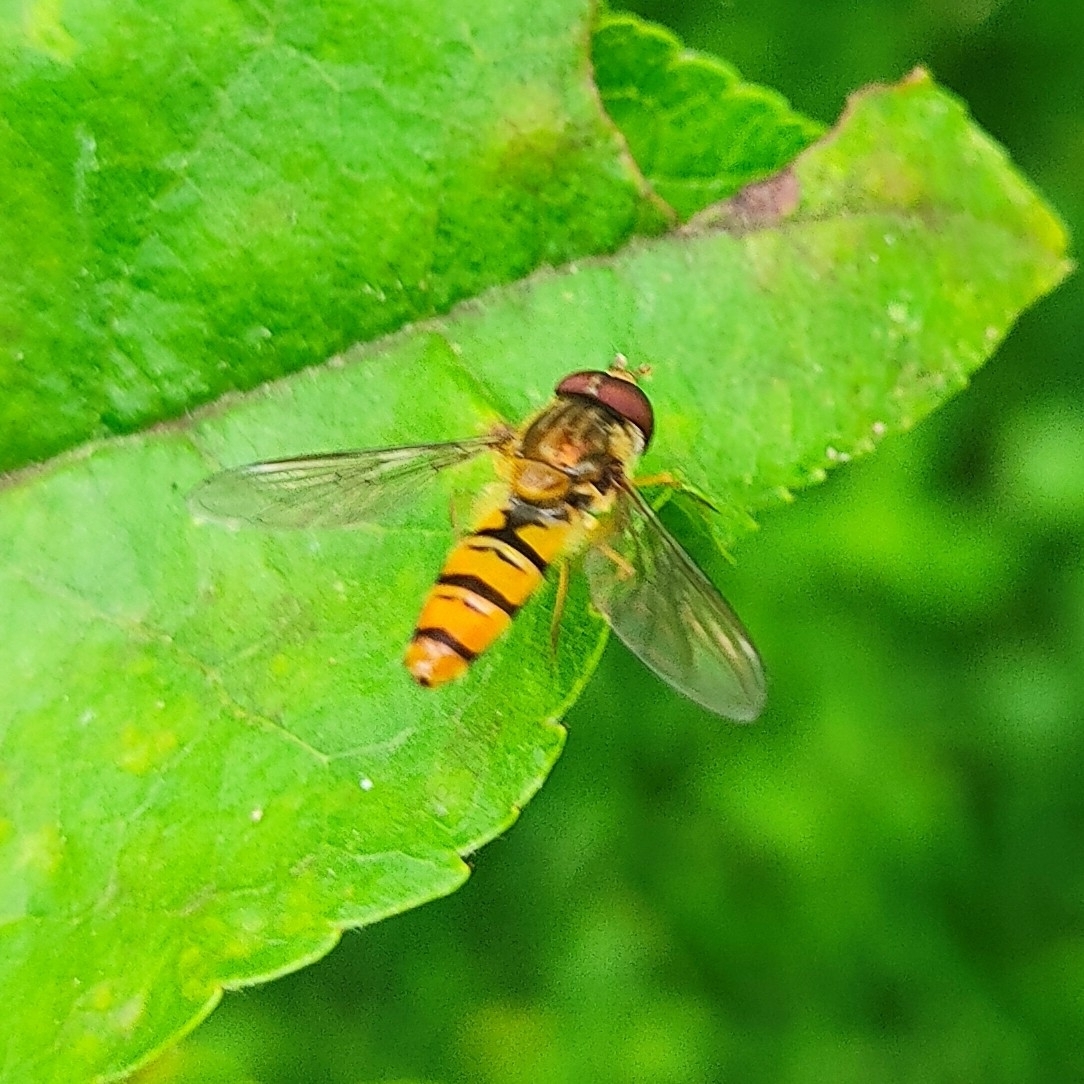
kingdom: Animalia
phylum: Arthropoda
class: Insecta
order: Diptera
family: Syrphidae
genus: Episyrphus
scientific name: Episyrphus balteatus
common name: Marmalade hoverfly
